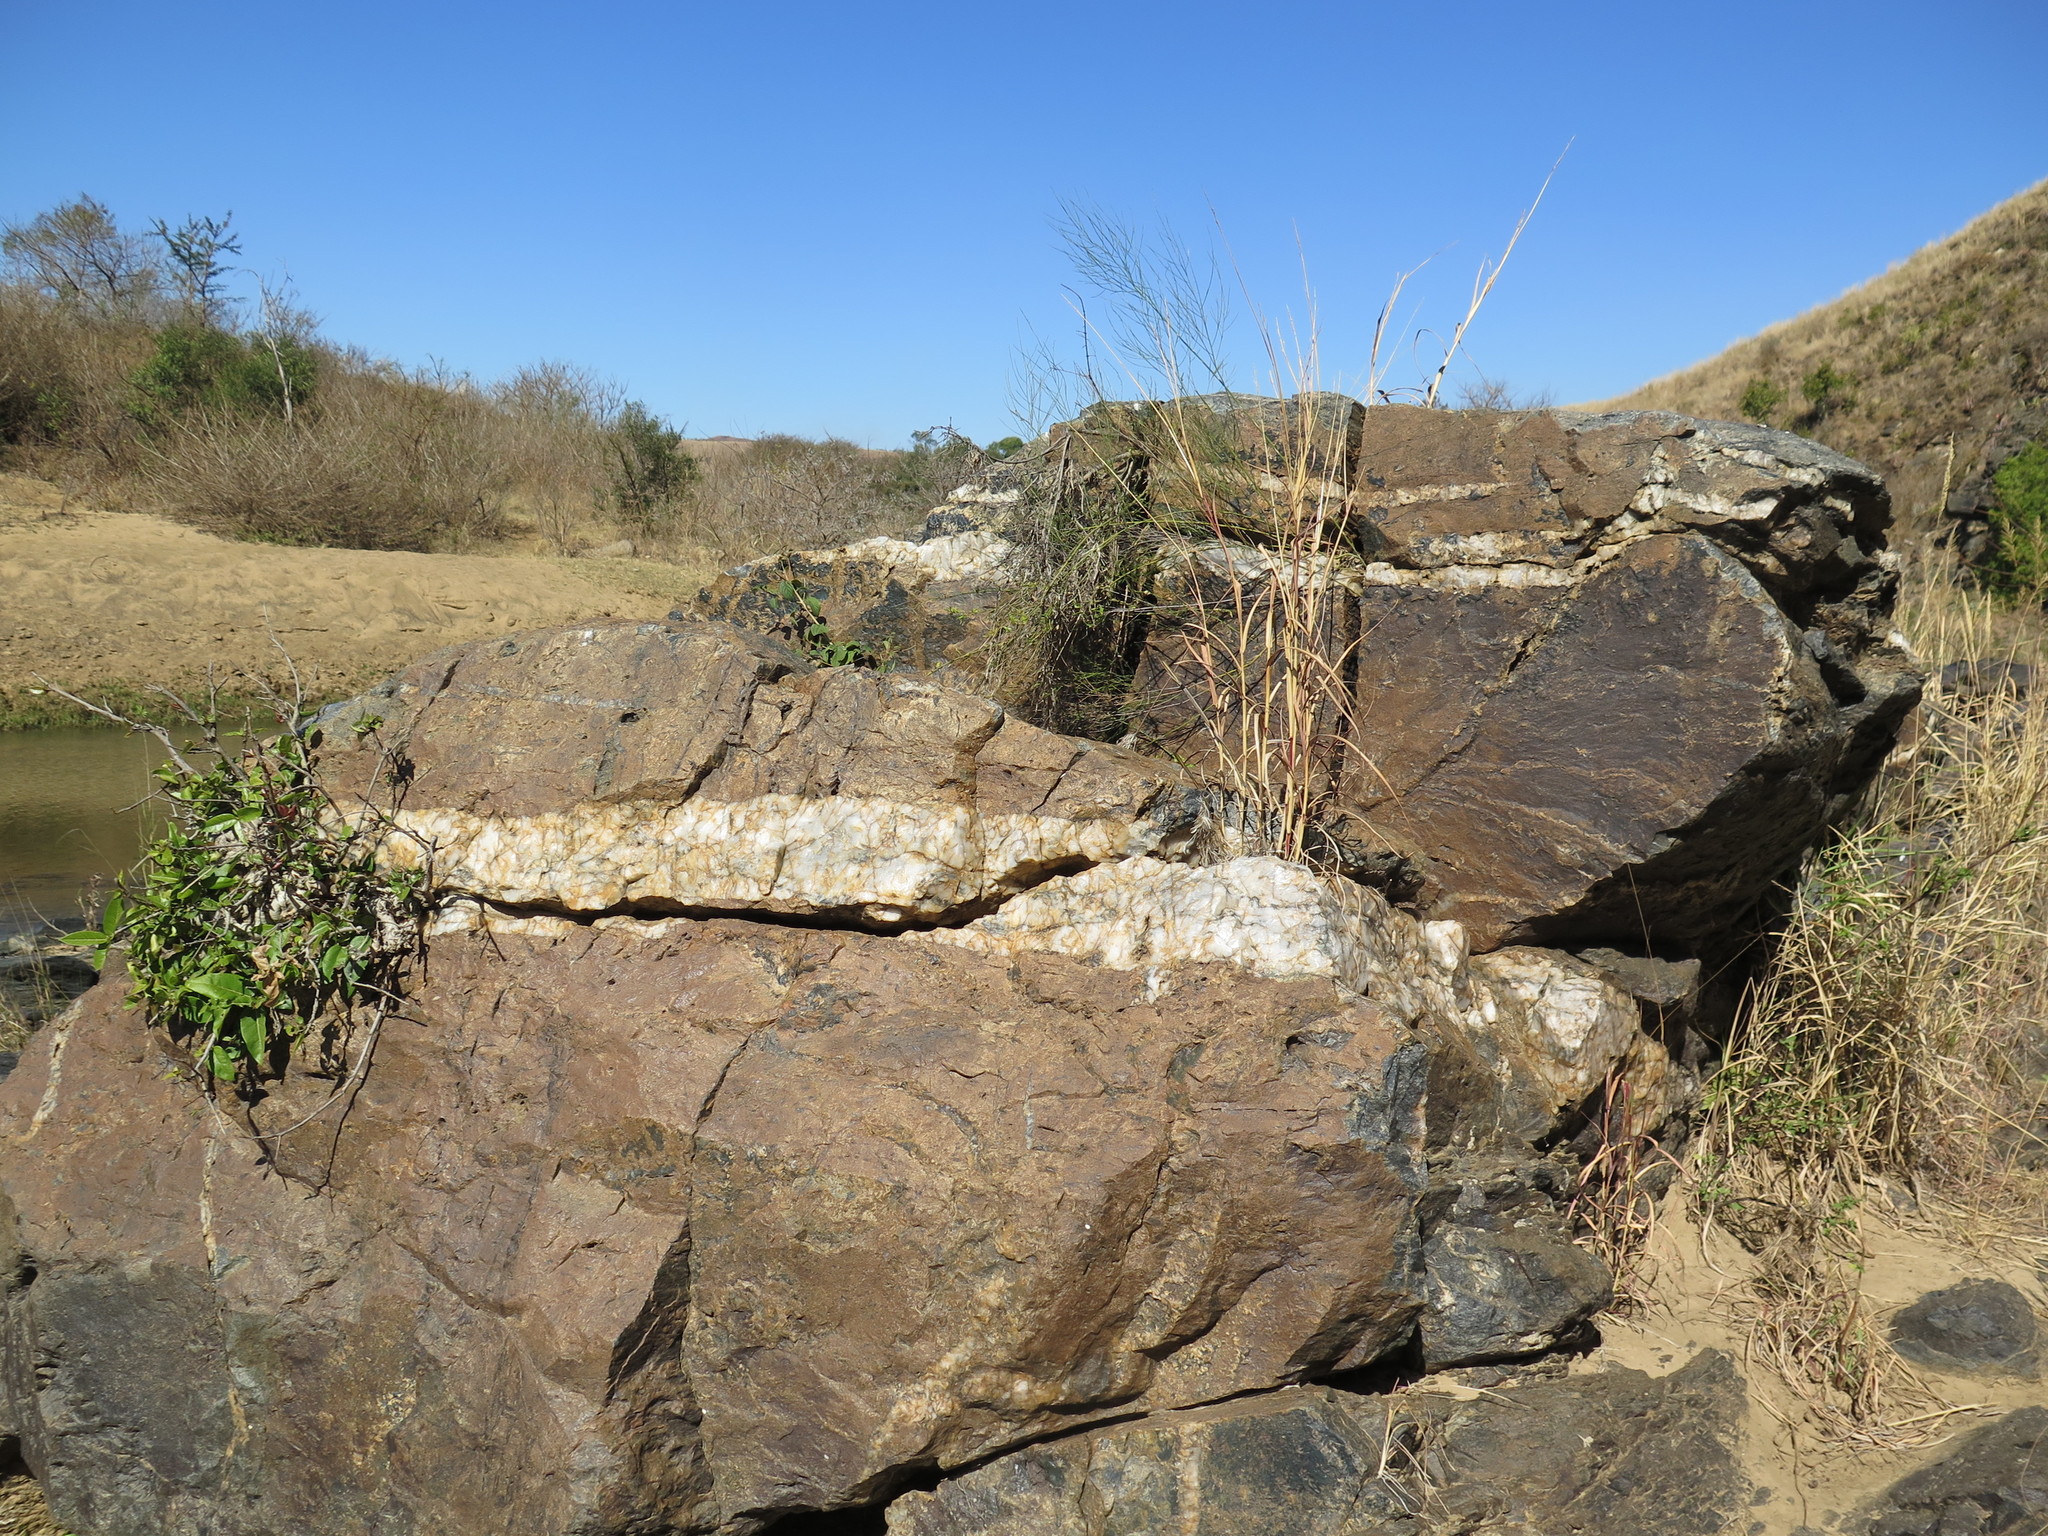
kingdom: Plantae
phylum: Tracheophyta
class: Magnoliopsida
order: Rosales
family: Moraceae
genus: Ficus
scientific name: Ficus ingens
